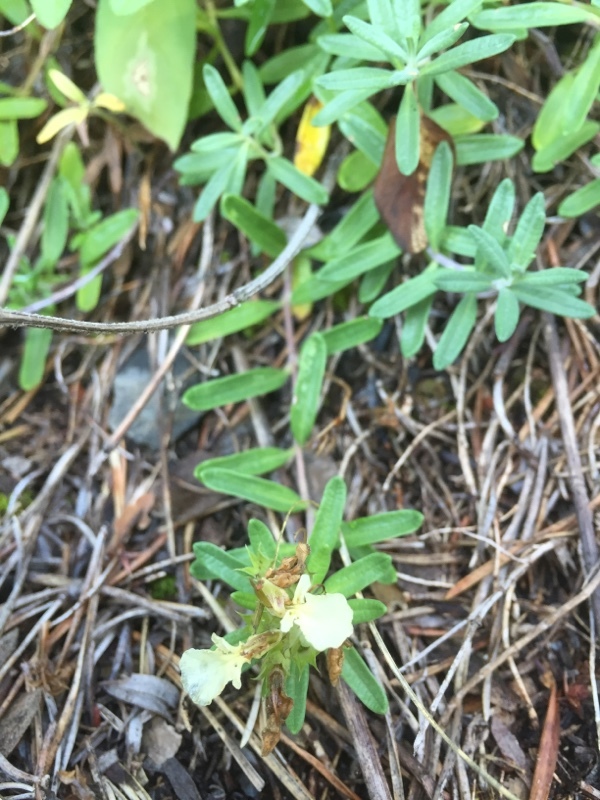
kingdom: Plantae
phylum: Tracheophyta
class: Magnoliopsida
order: Lamiales
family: Lamiaceae
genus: Teucrium
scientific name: Teucrium montanum
